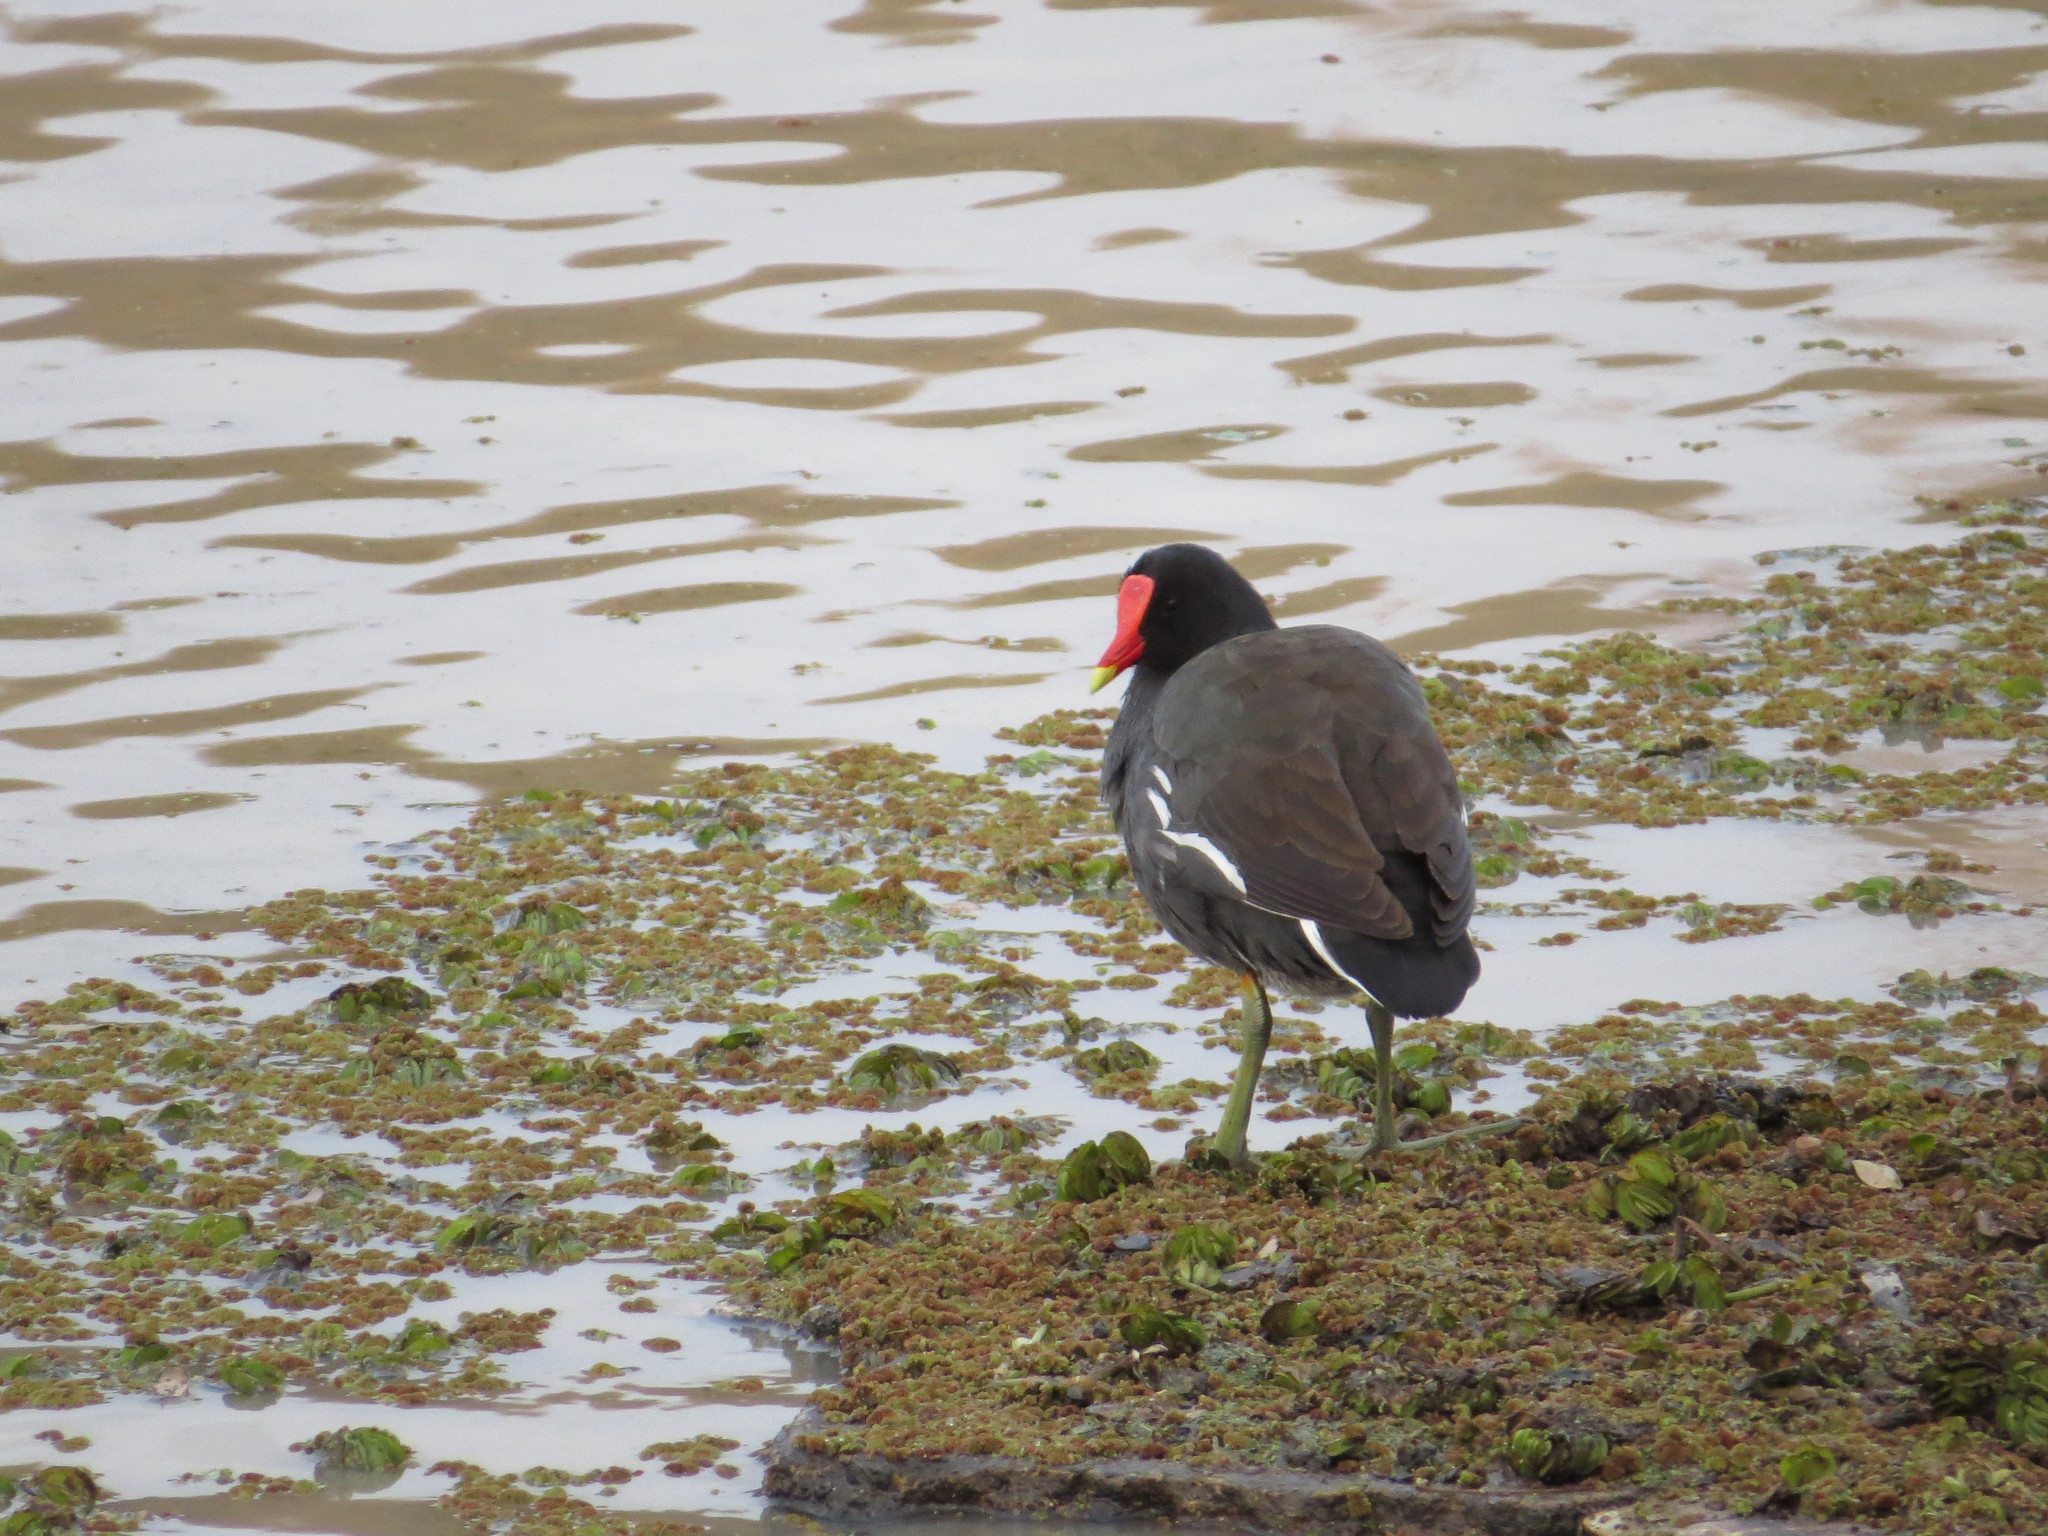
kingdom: Animalia
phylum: Chordata
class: Aves
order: Gruiformes
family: Rallidae
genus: Gallinula
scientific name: Gallinula chloropus
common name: Common moorhen
